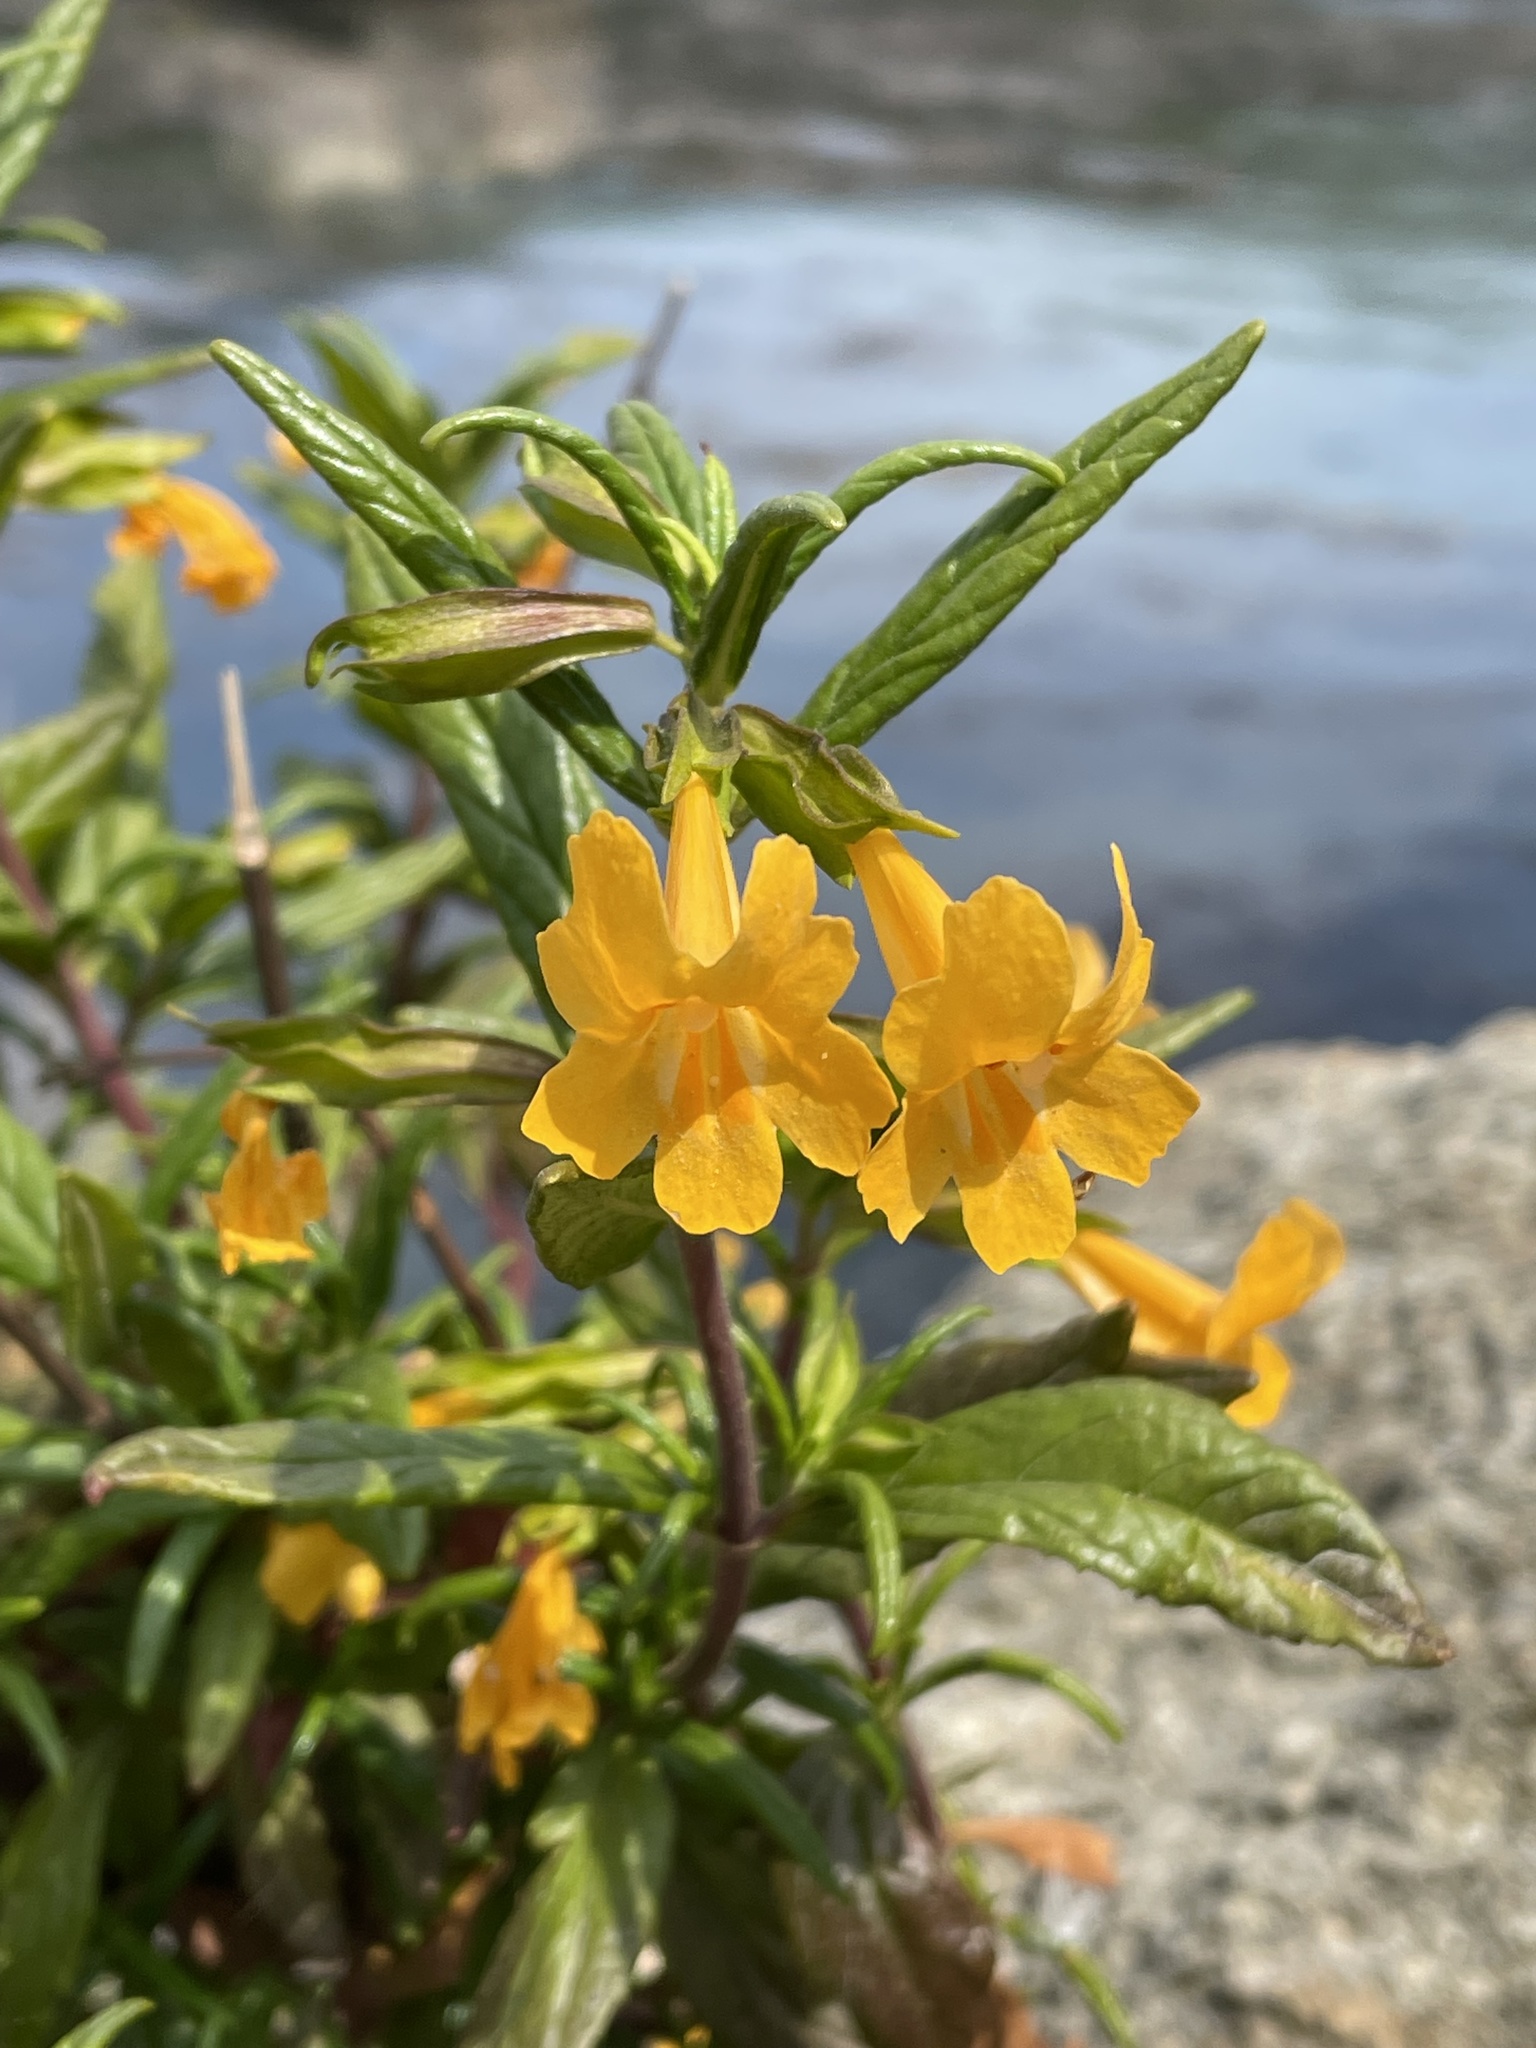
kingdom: Plantae
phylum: Tracheophyta
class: Magnoliopsida
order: Lamiales
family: Phrymaceae
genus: Diplacus
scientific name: Diplacus aurantiacus
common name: Bush monkey-flower
